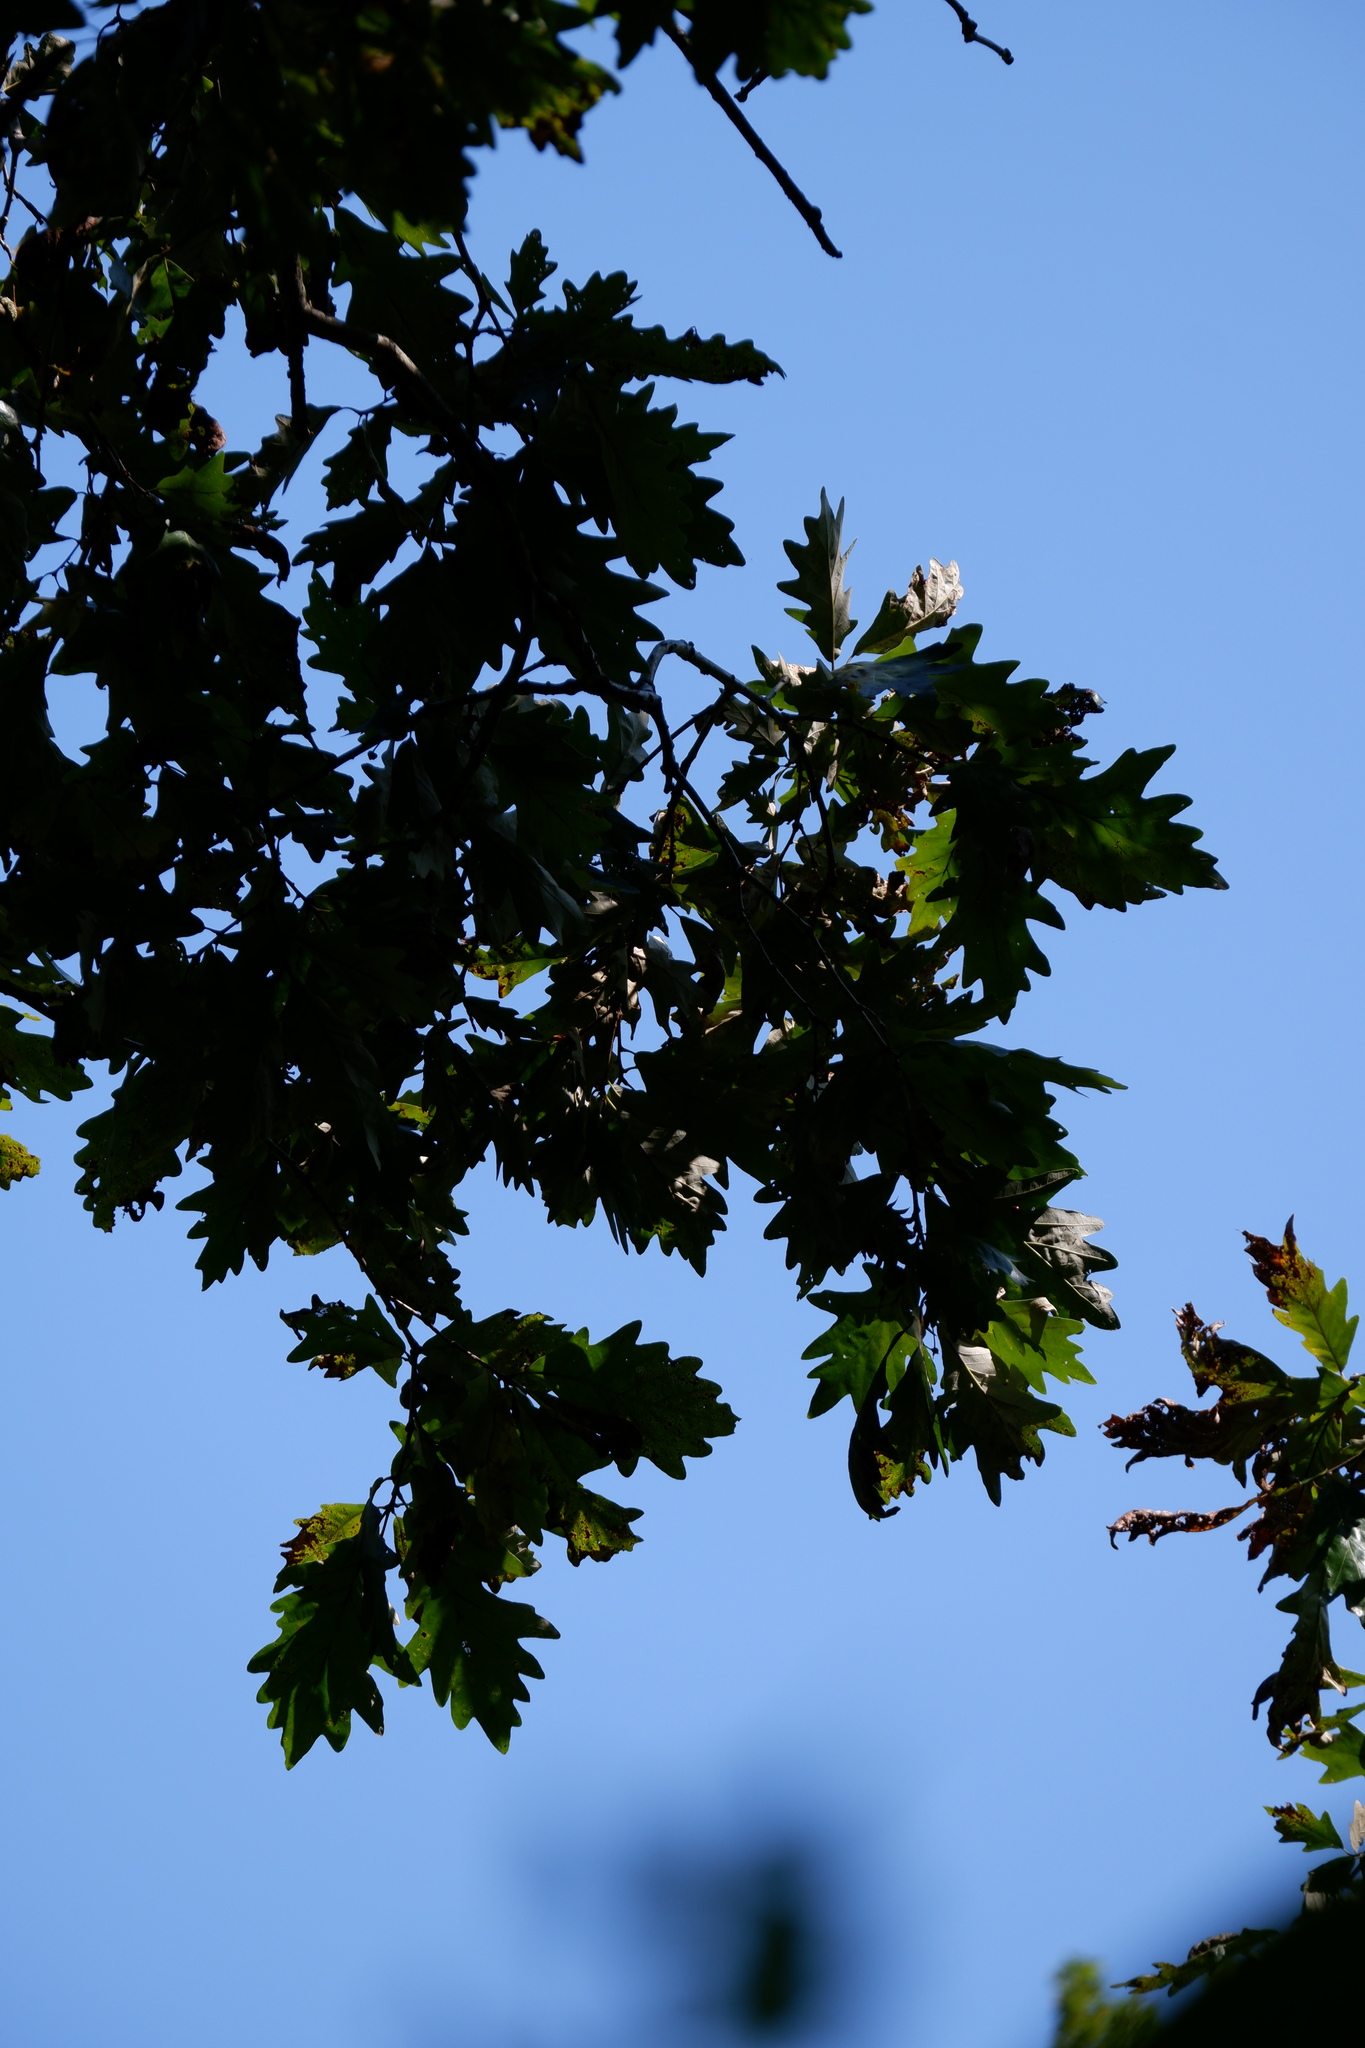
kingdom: Plantae
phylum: Tracheophyta
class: Magnoliopsida
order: Fagales
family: Fagaceae
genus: Quercus
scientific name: Quercus bicolor
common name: Swamp white oak
